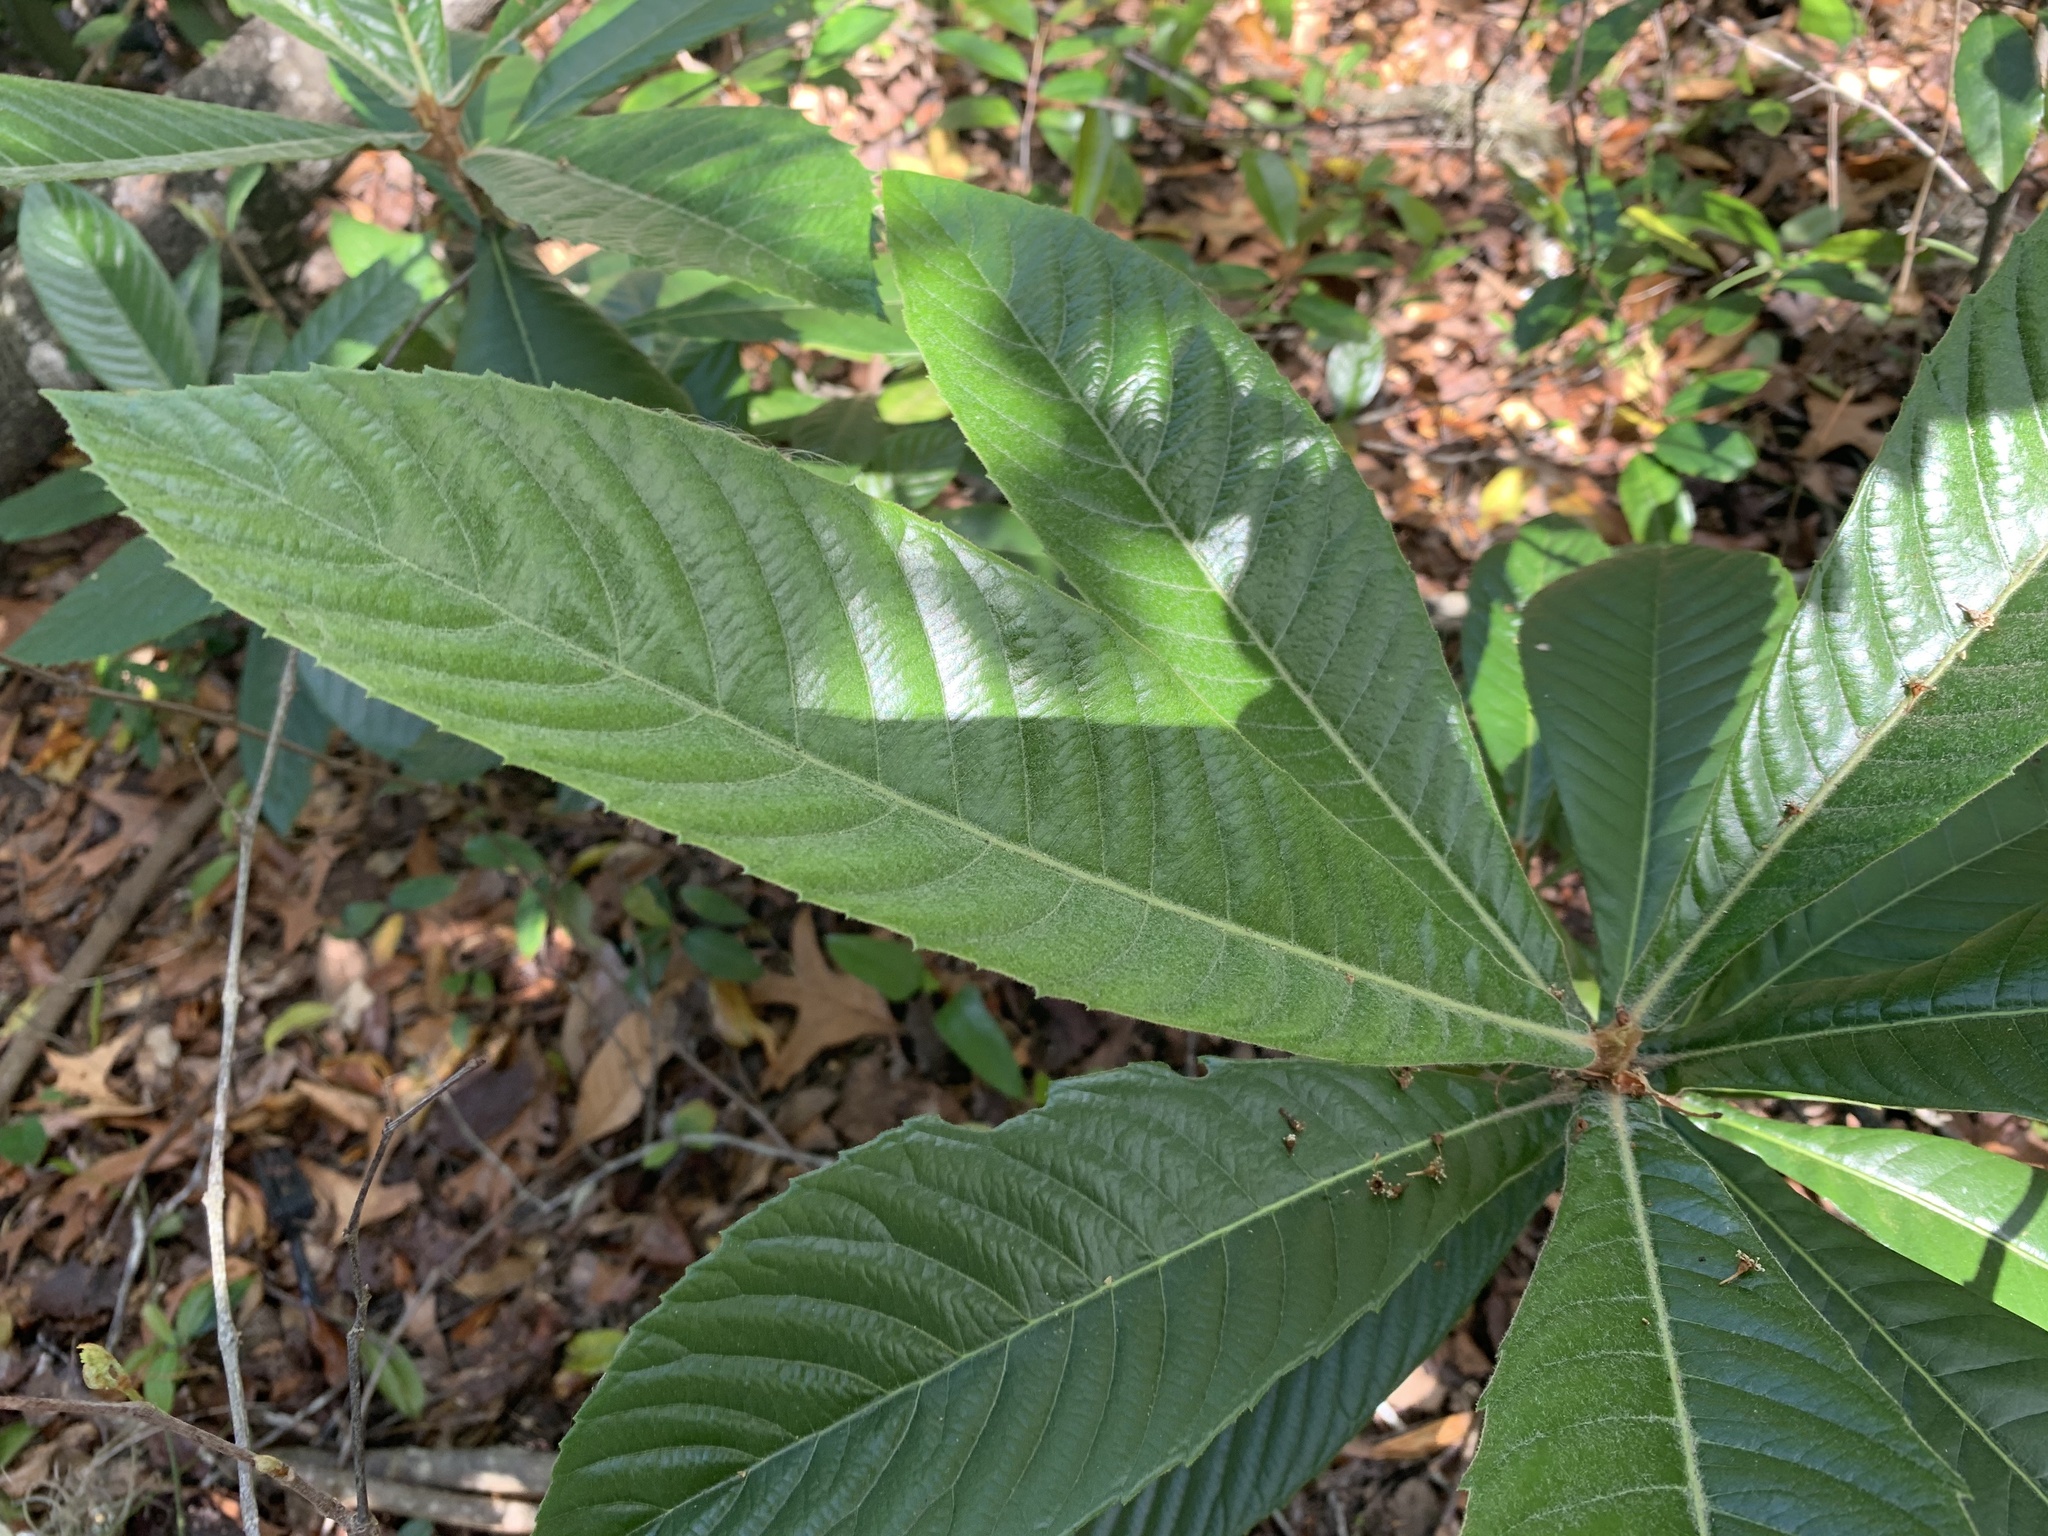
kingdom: Plantae
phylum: Tracheophyta
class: Magnoliopsida
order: Rosales
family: Rosaceae
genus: Rhaphiolepis
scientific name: Rhaphiolepis bibas
